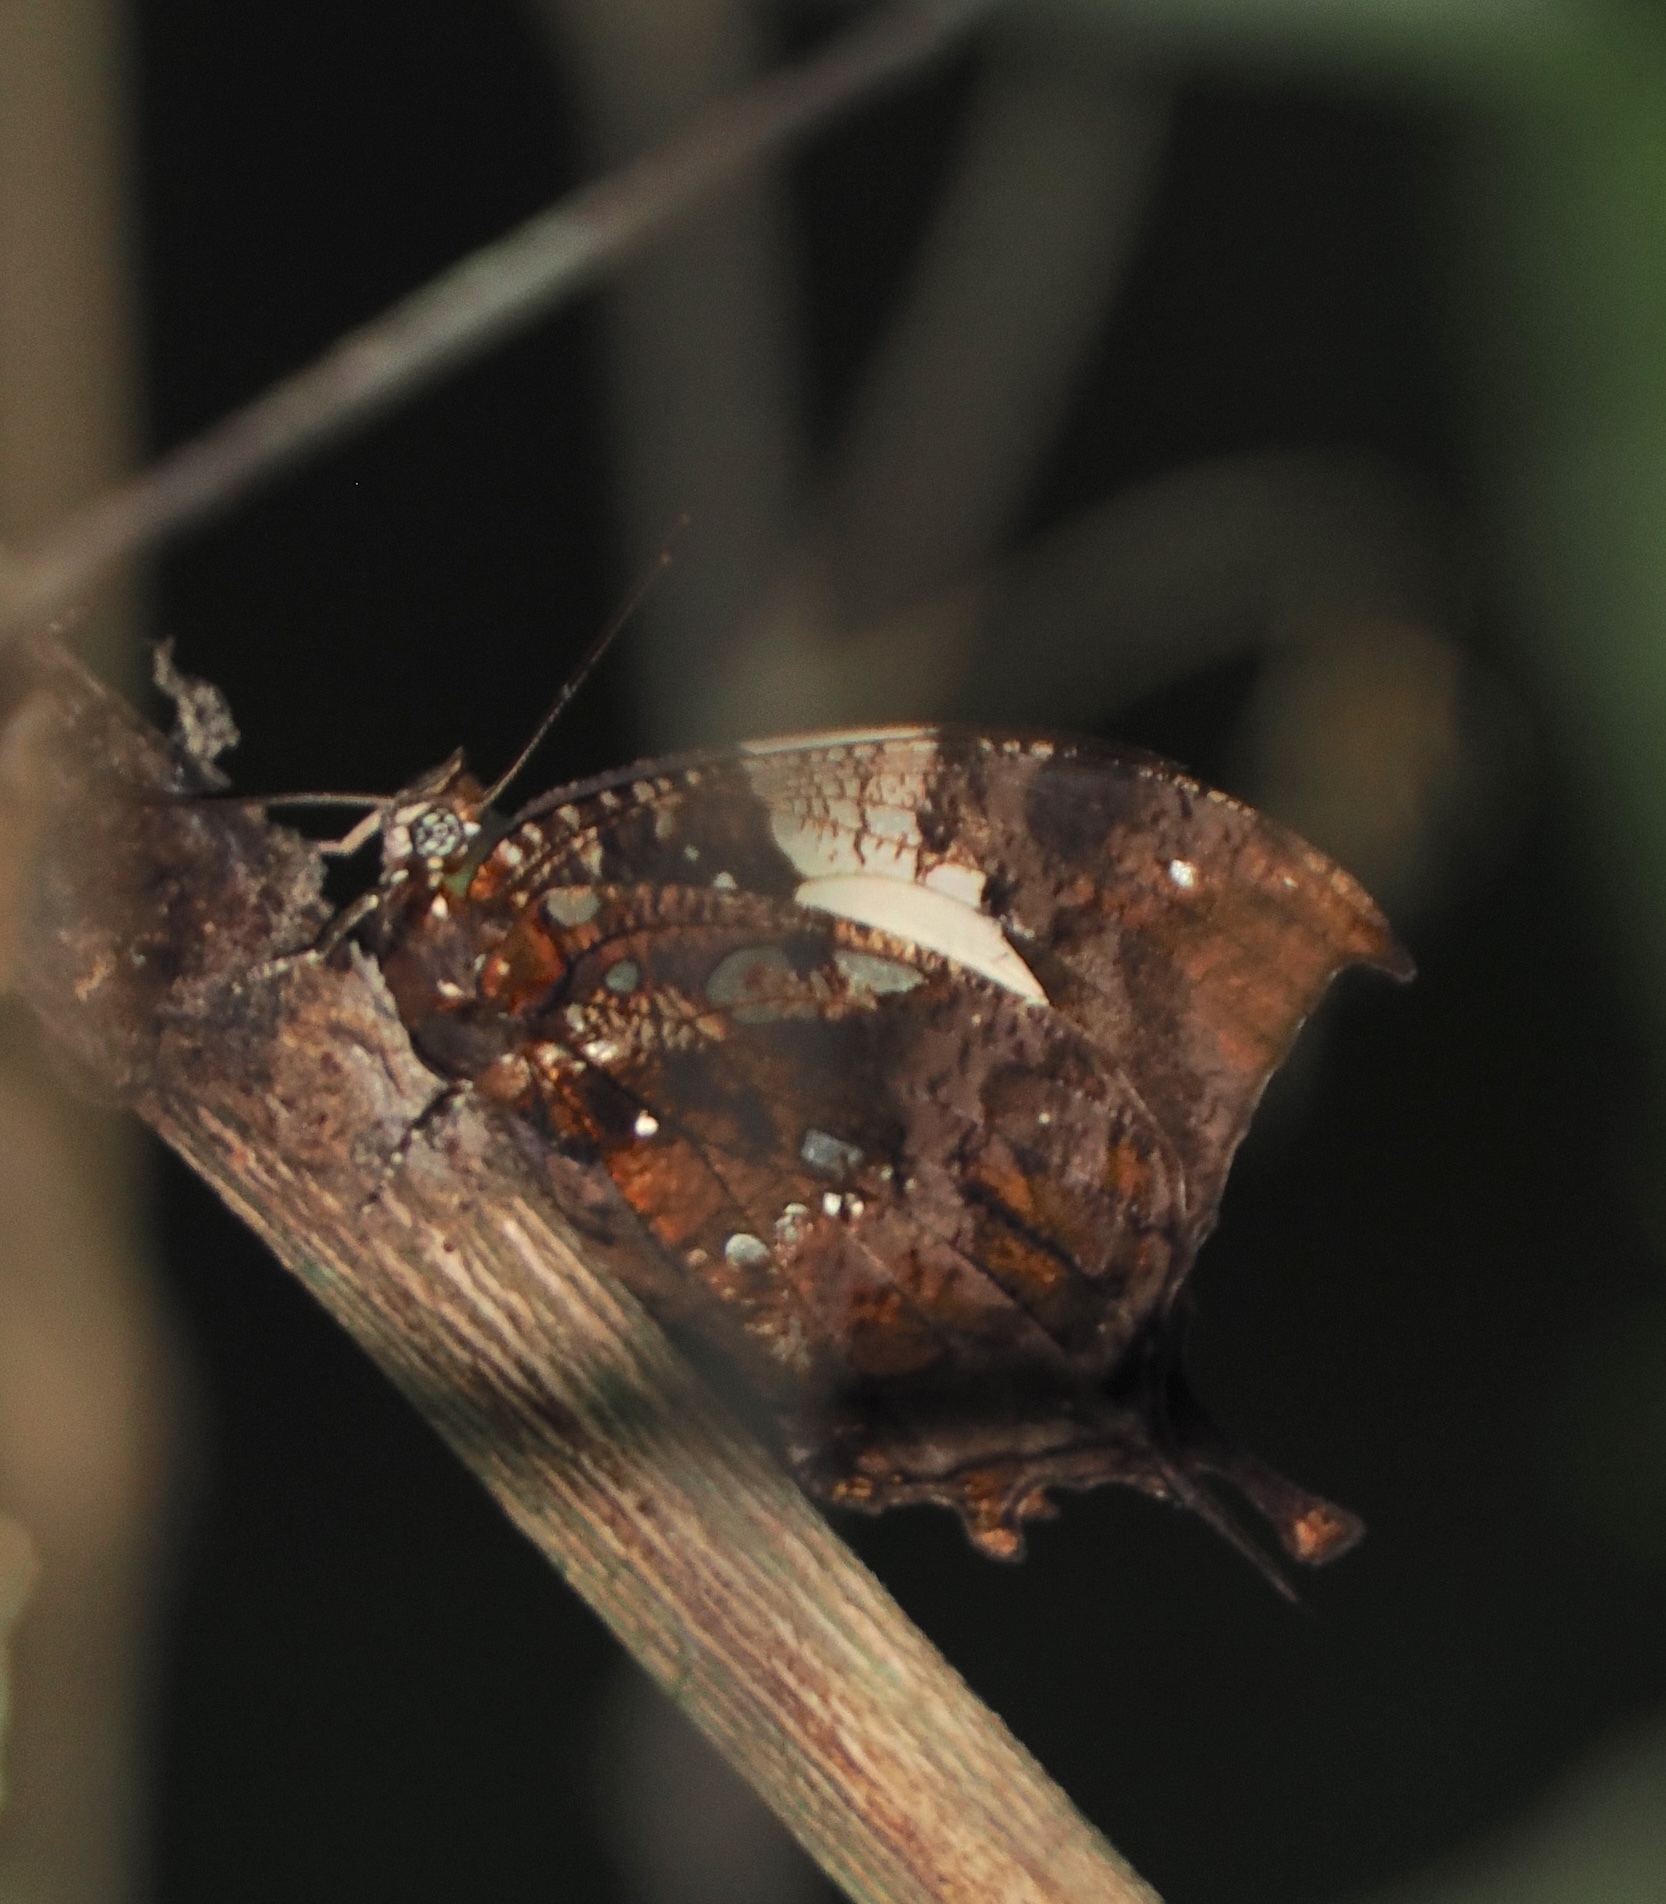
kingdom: Animalia
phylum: Arthropoda
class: Insecta
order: Lepidoptera
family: Nymphalidae
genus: Hypna
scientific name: Hypna clytemnestra
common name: Silver-studded leafwing
